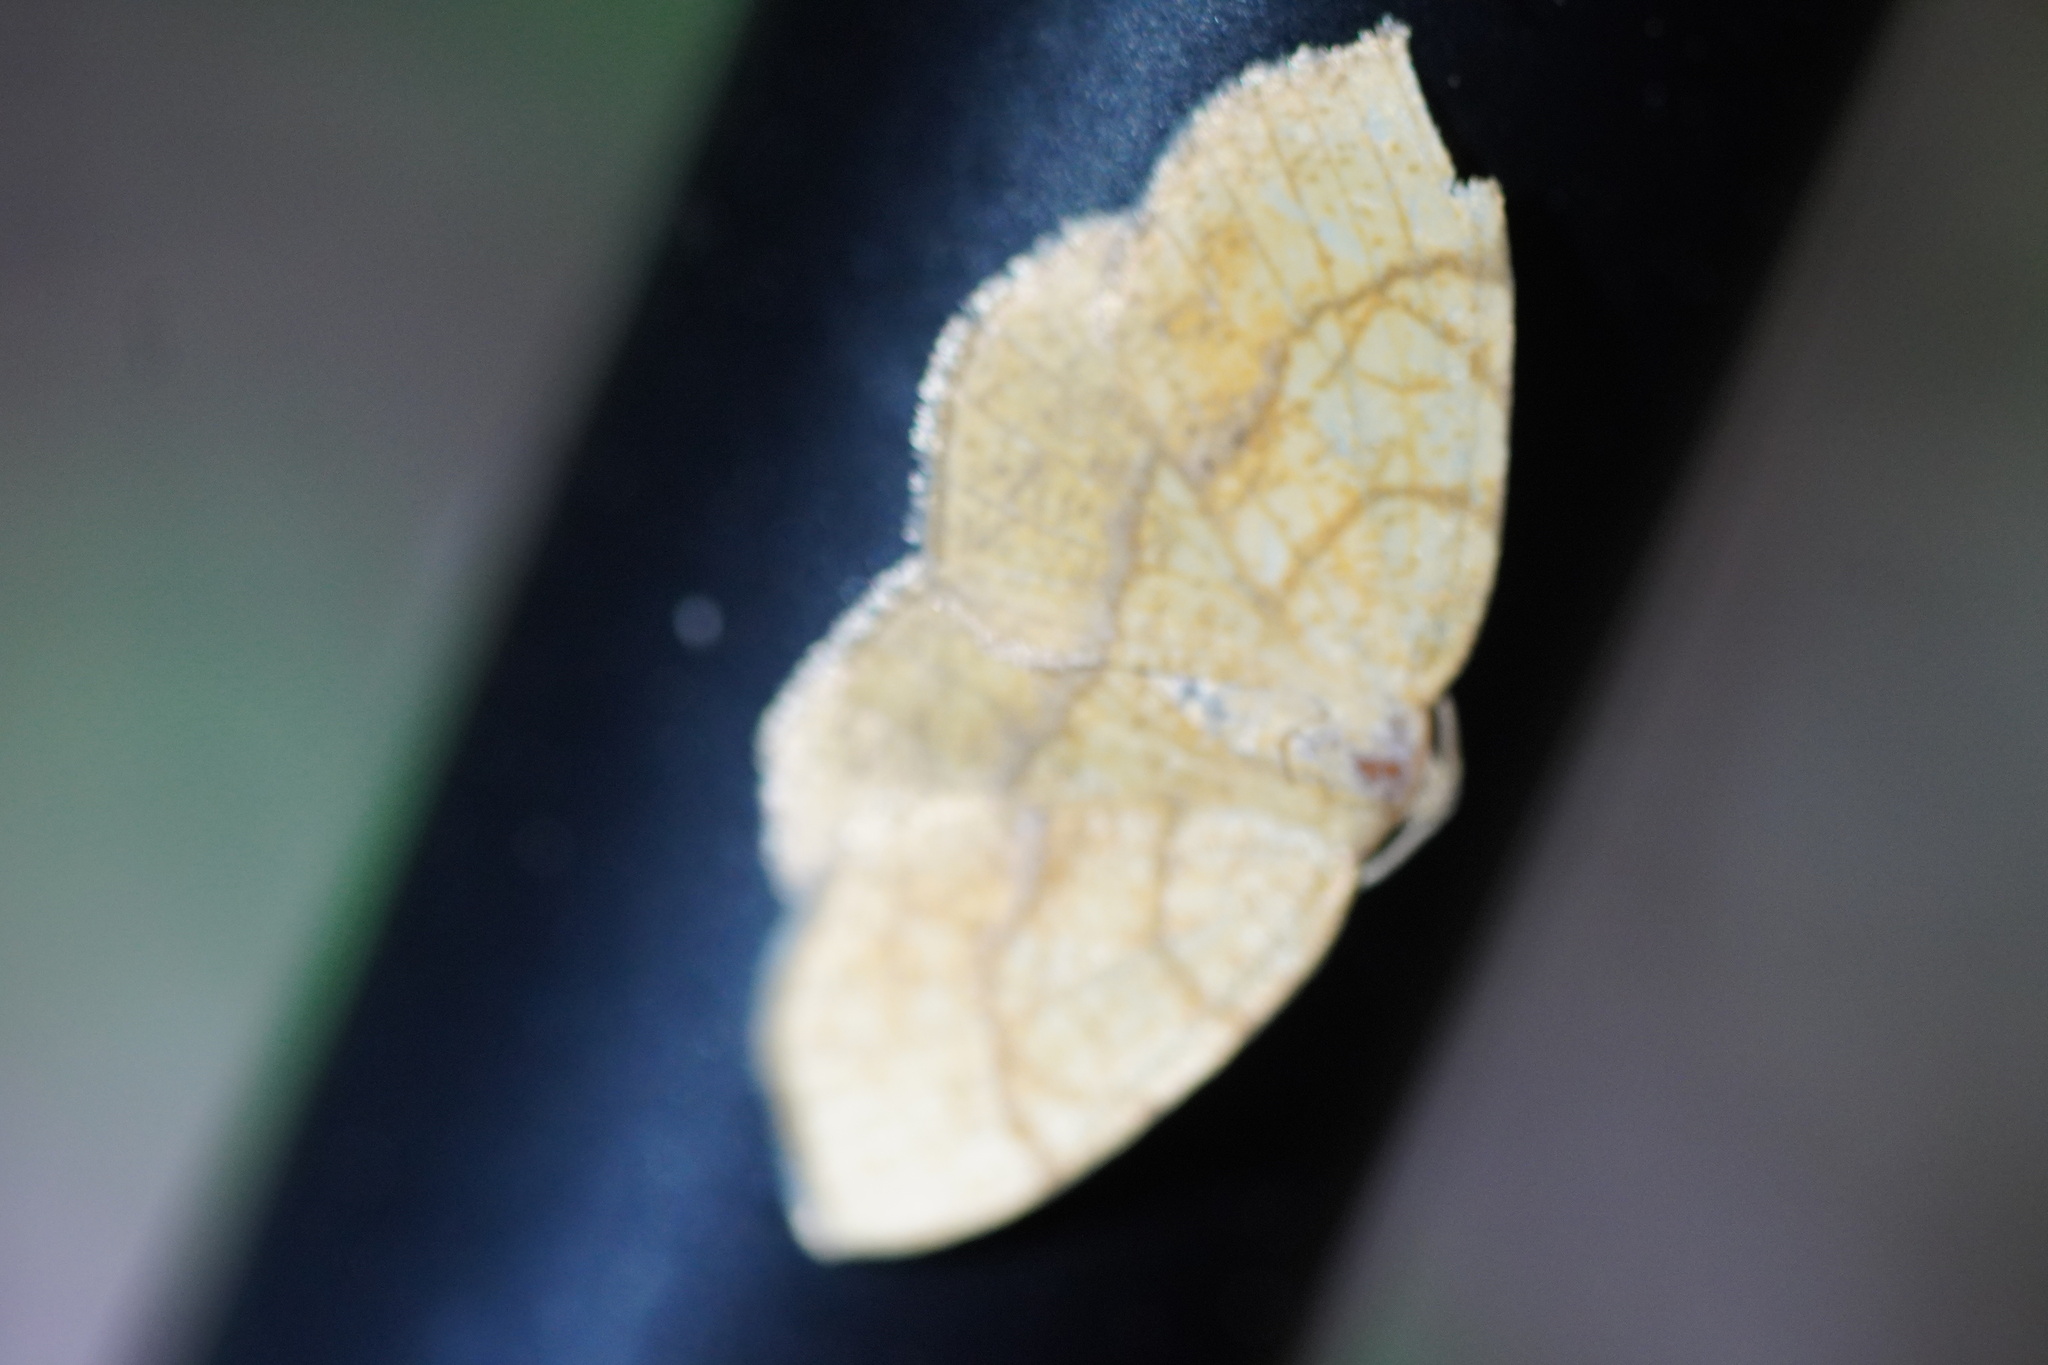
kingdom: Animalia
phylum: Arthropoda
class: Insecta
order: Lepidoptera
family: Geometridae
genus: Nematocampa
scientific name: Nematocampa resistaria
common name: Horned spanworm moth
